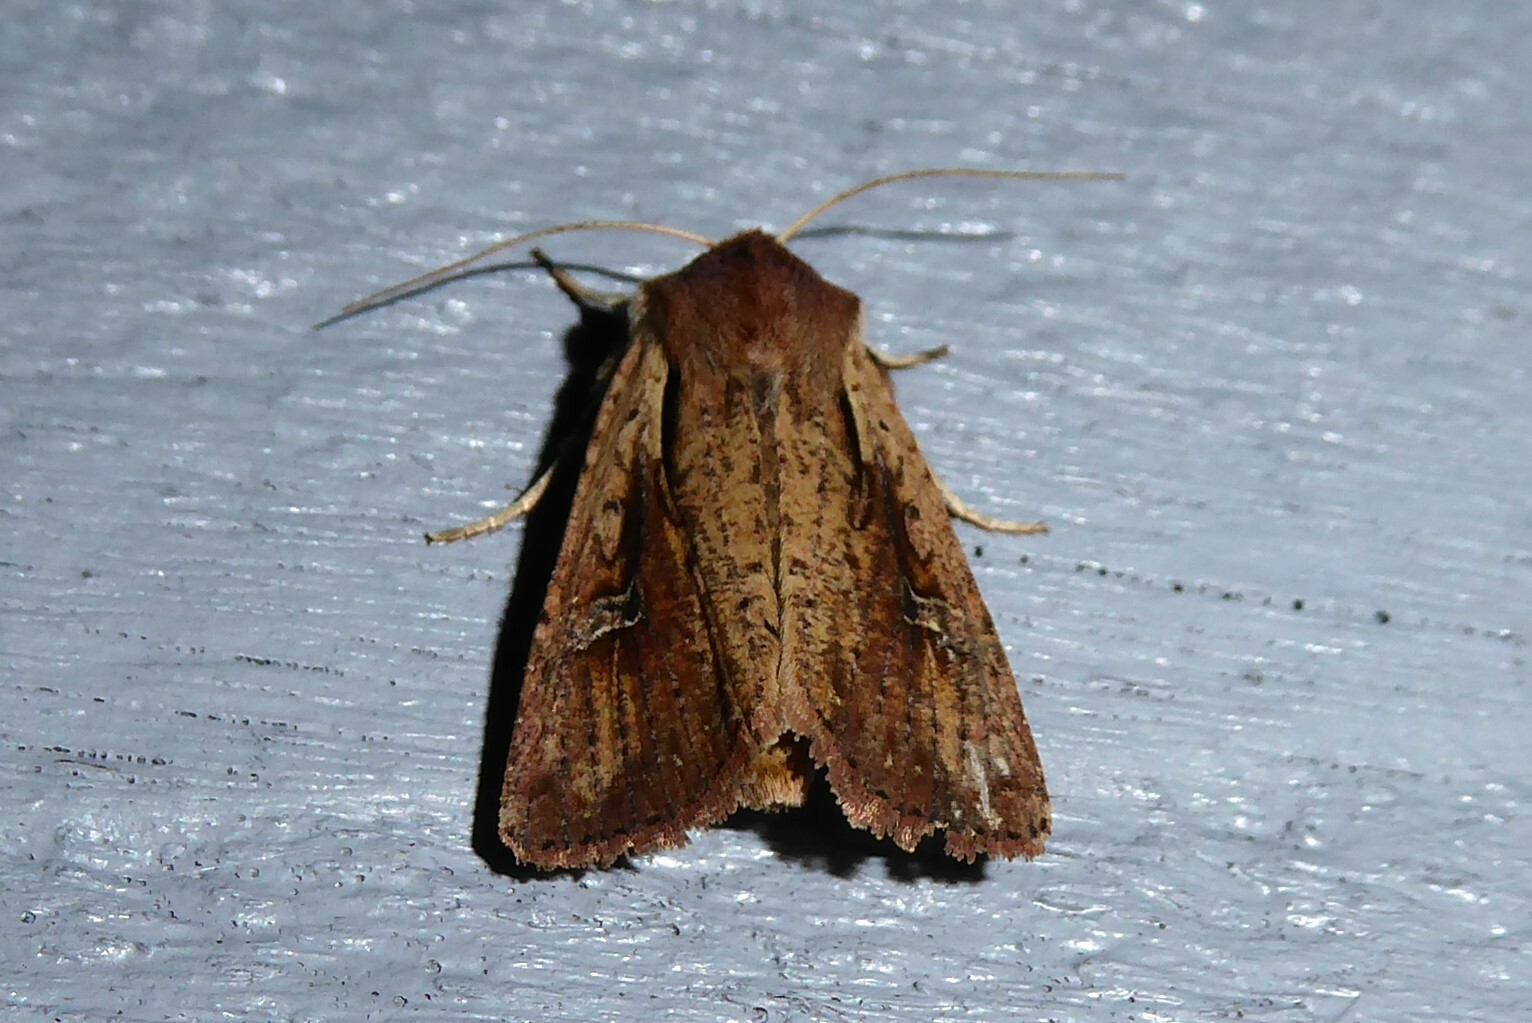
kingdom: Animalia
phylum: Arthropoda
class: Insecta
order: Lepidoptera
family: Noctuidae
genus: Ichneutica
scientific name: Ichneutica atristriga
